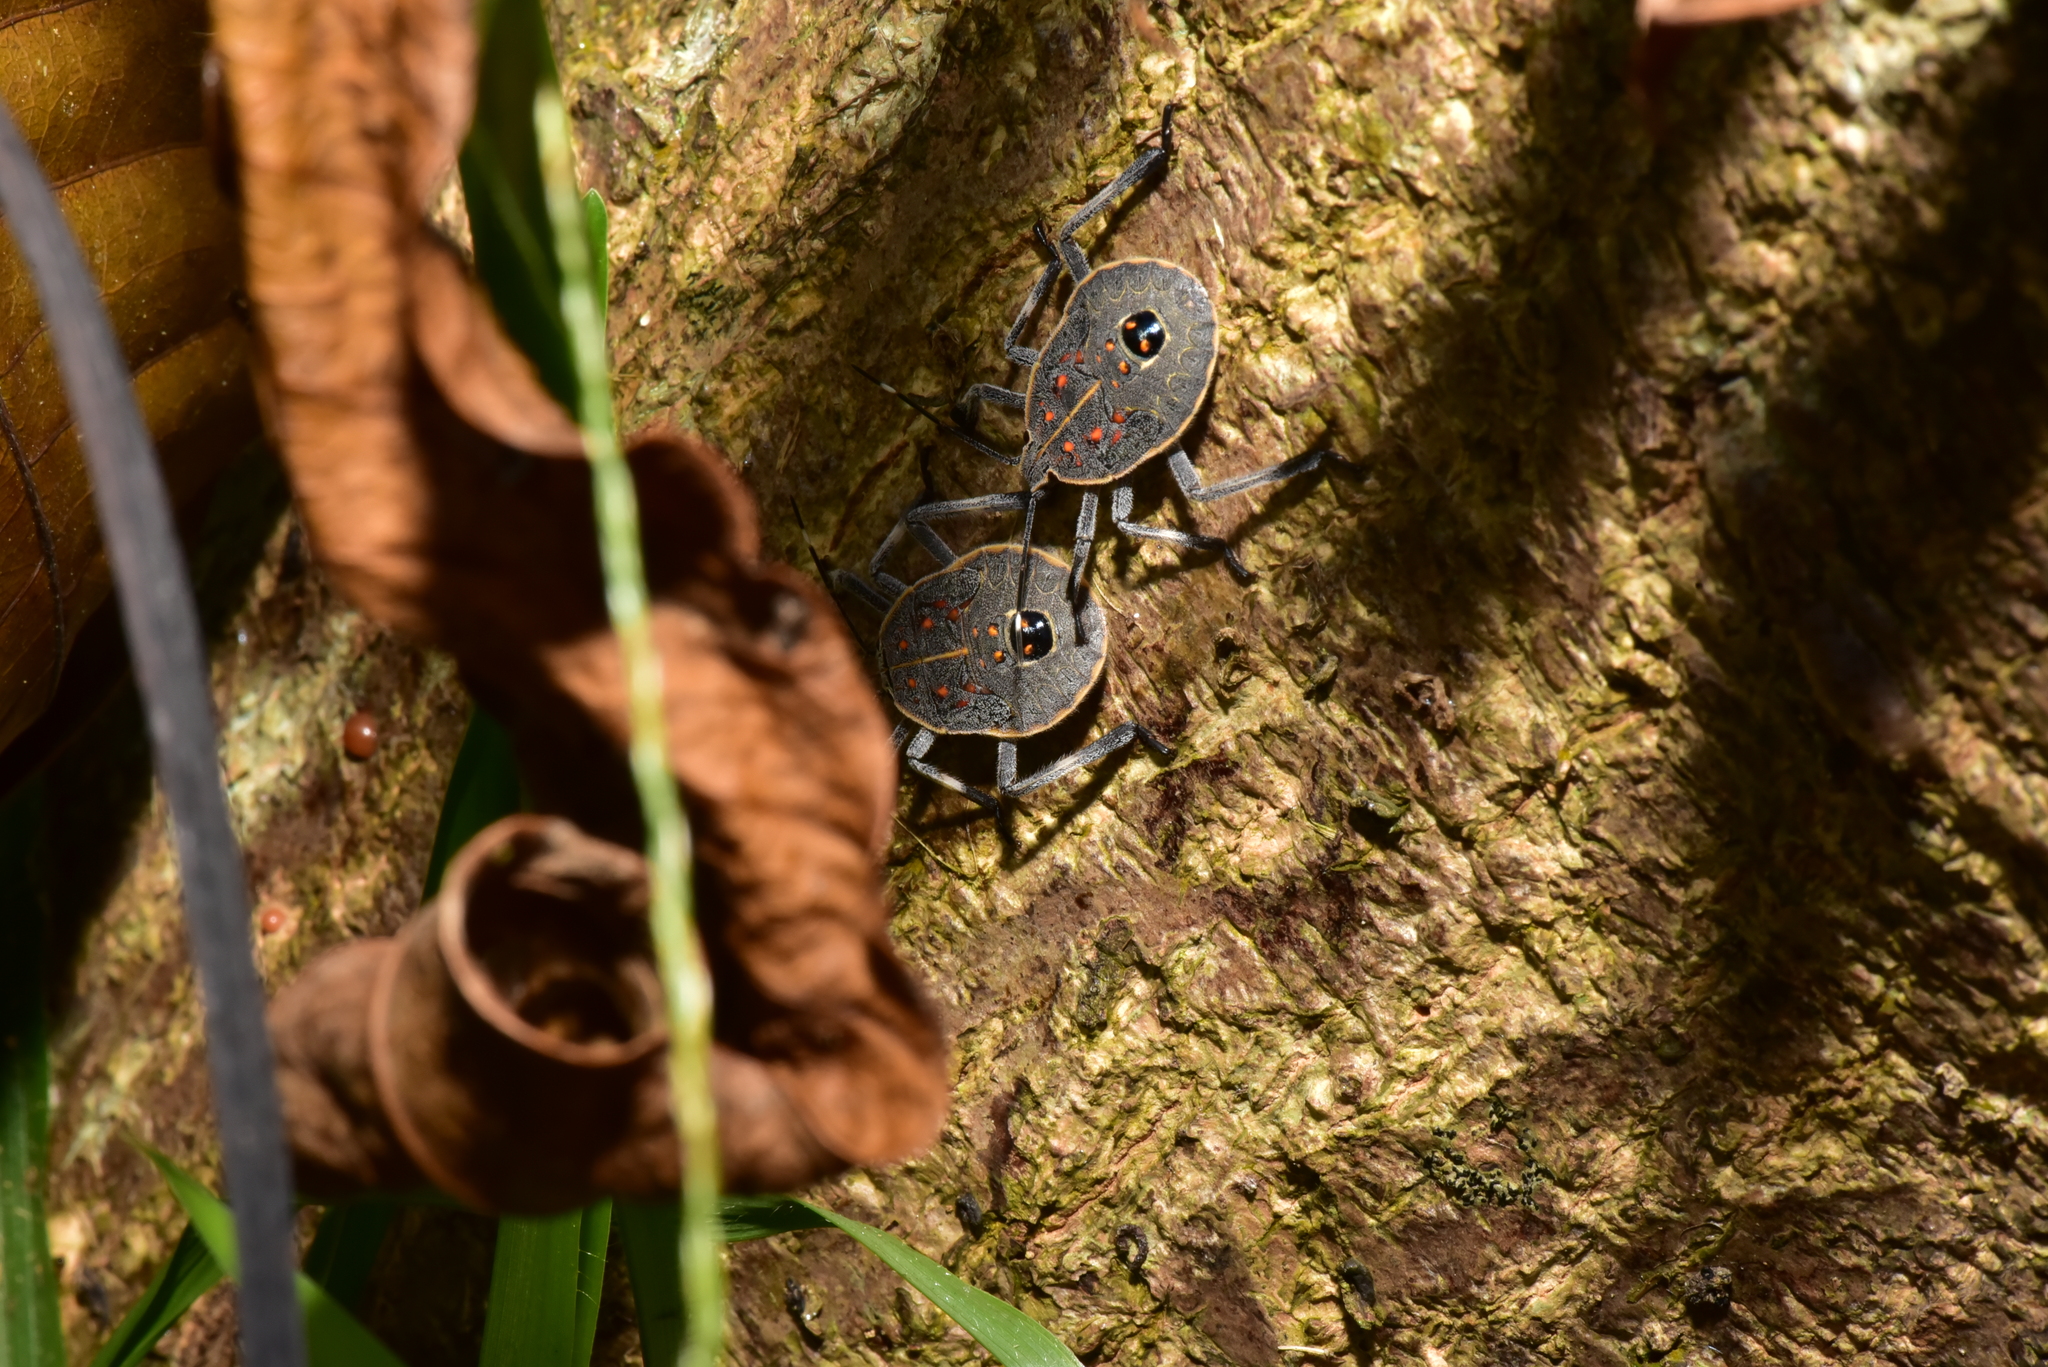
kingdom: Animalia
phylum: Arthropoda
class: Insecta
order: Hemiptera
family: Pentatomidae
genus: Erthesina
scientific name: Erthesina fullo
